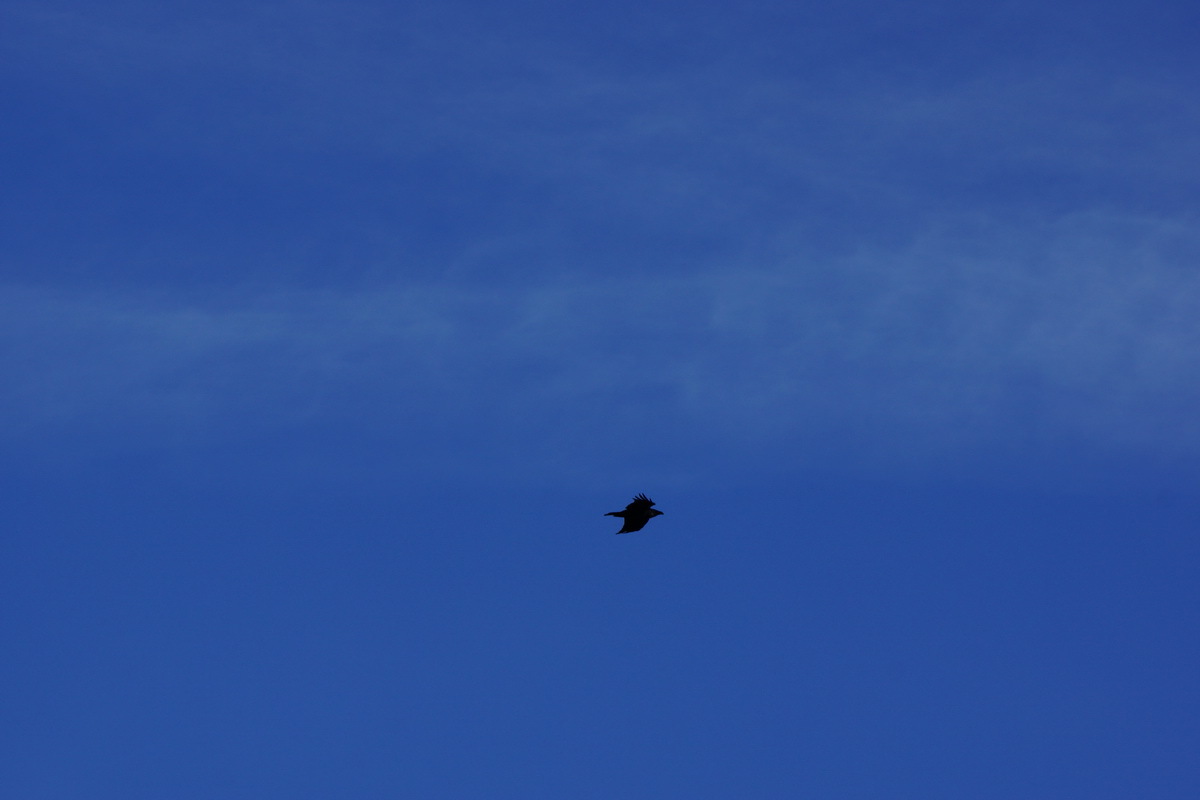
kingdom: Animalia
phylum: Chordata
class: Aves
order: Passeriformes
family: Corvidae
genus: Corvus
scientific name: Corvus corax
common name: Common raven
